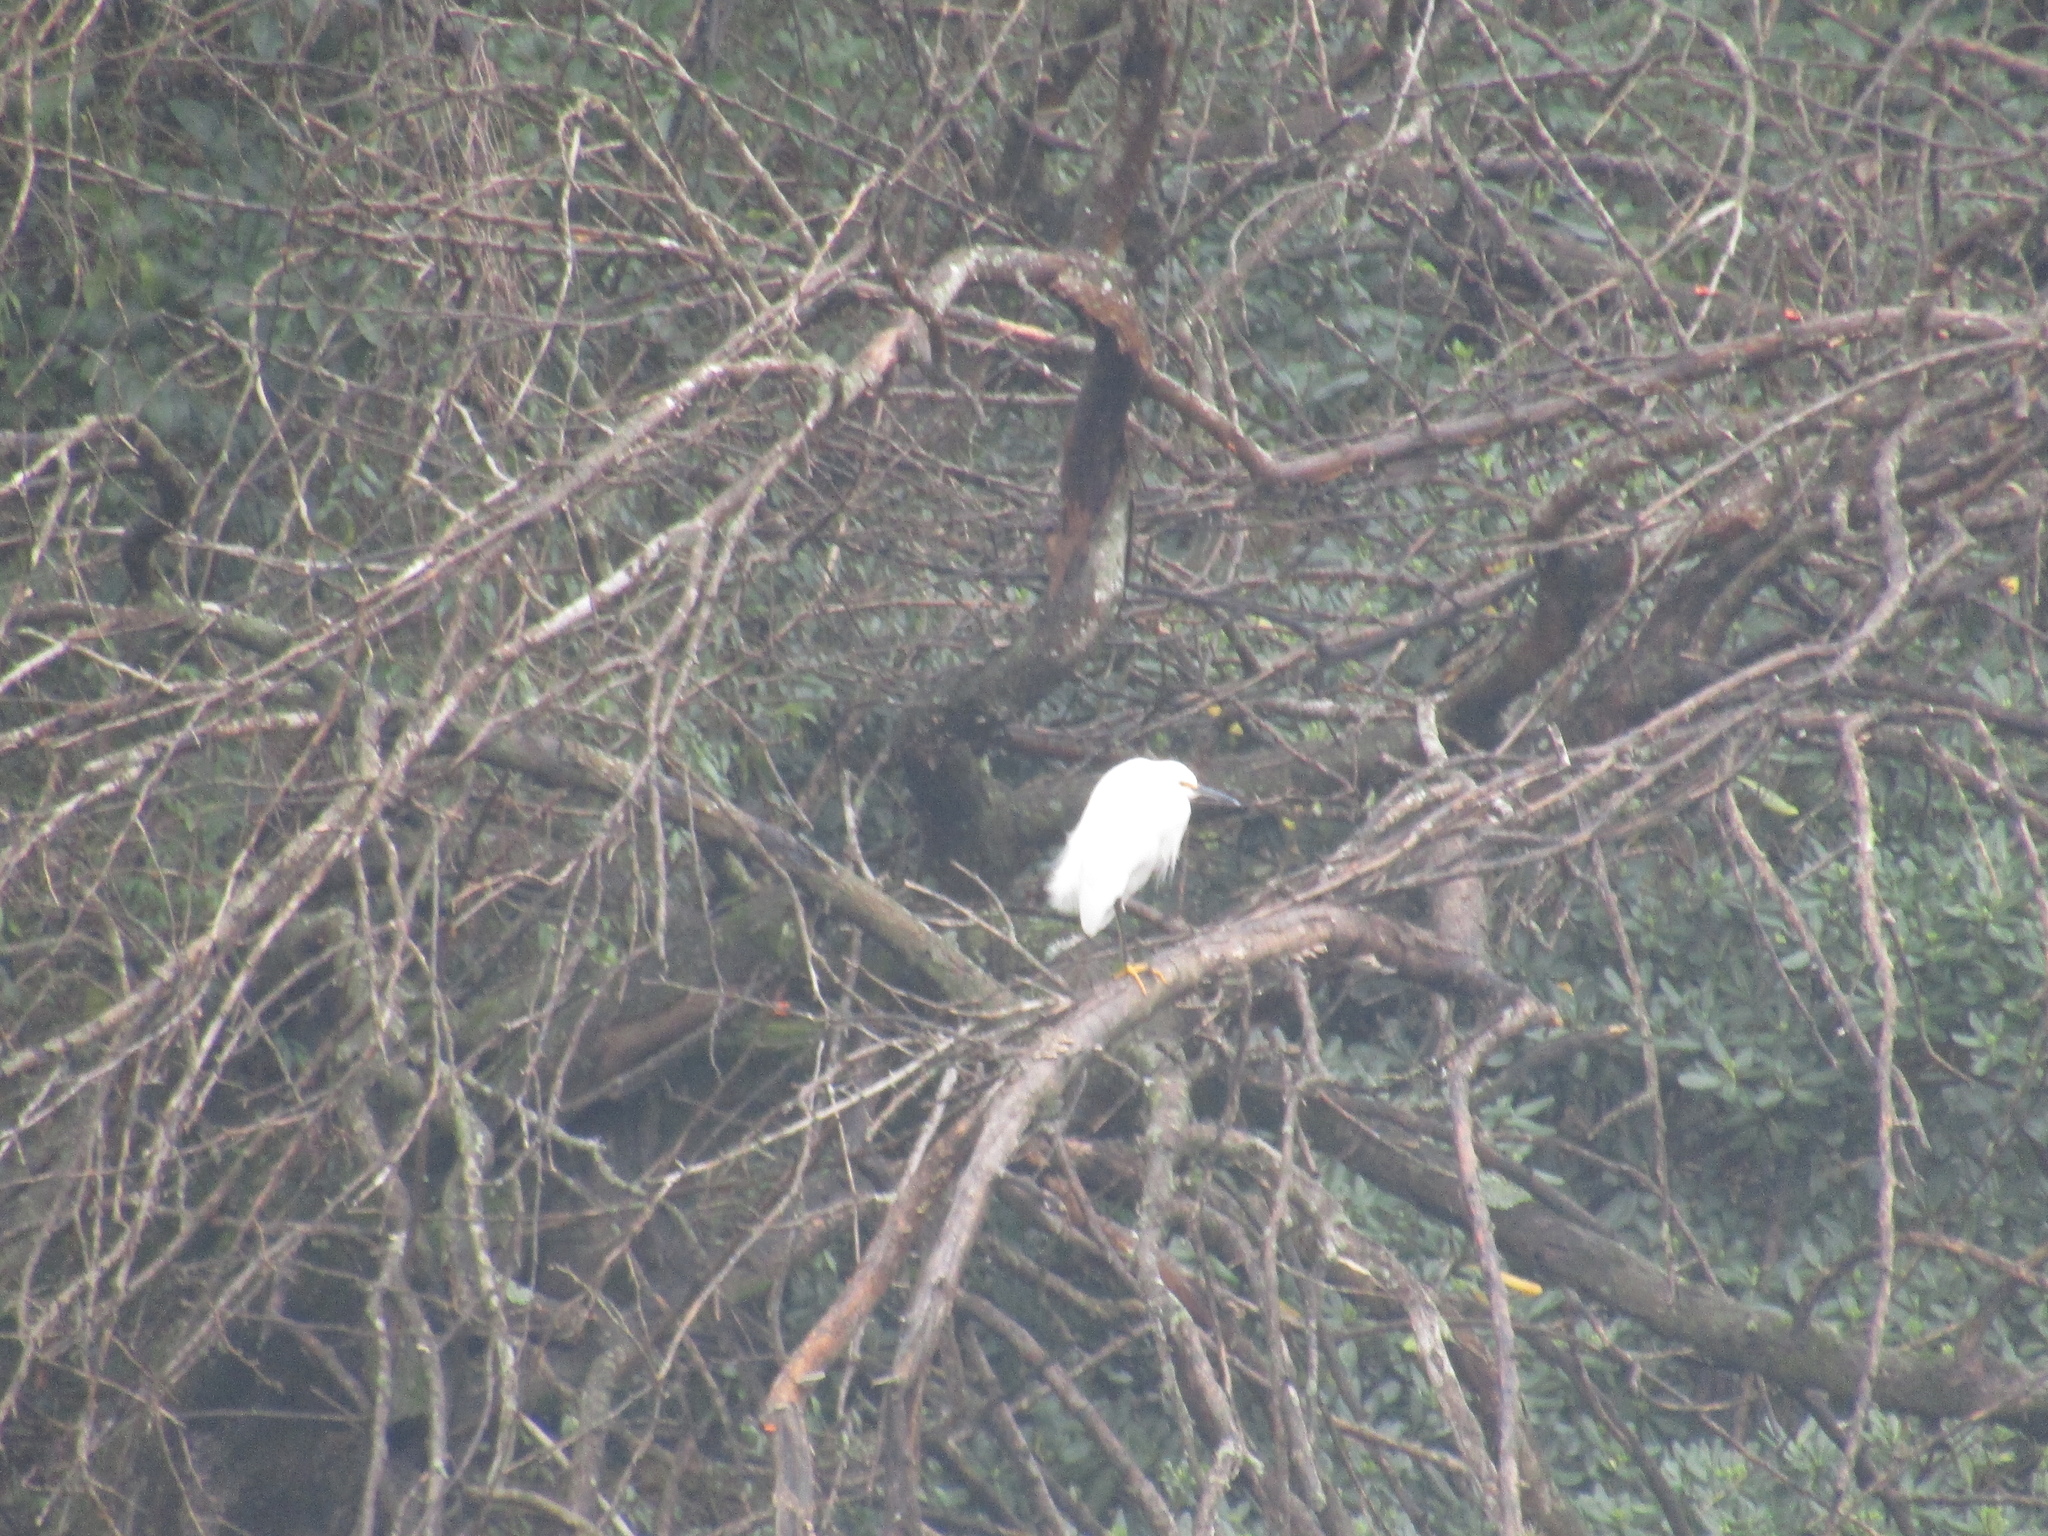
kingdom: Animalia
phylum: Chordata
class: Aves
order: Pelecaniformes
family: Ardeidae
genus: Egretta
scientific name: Egretta thula
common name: Snowy egret
